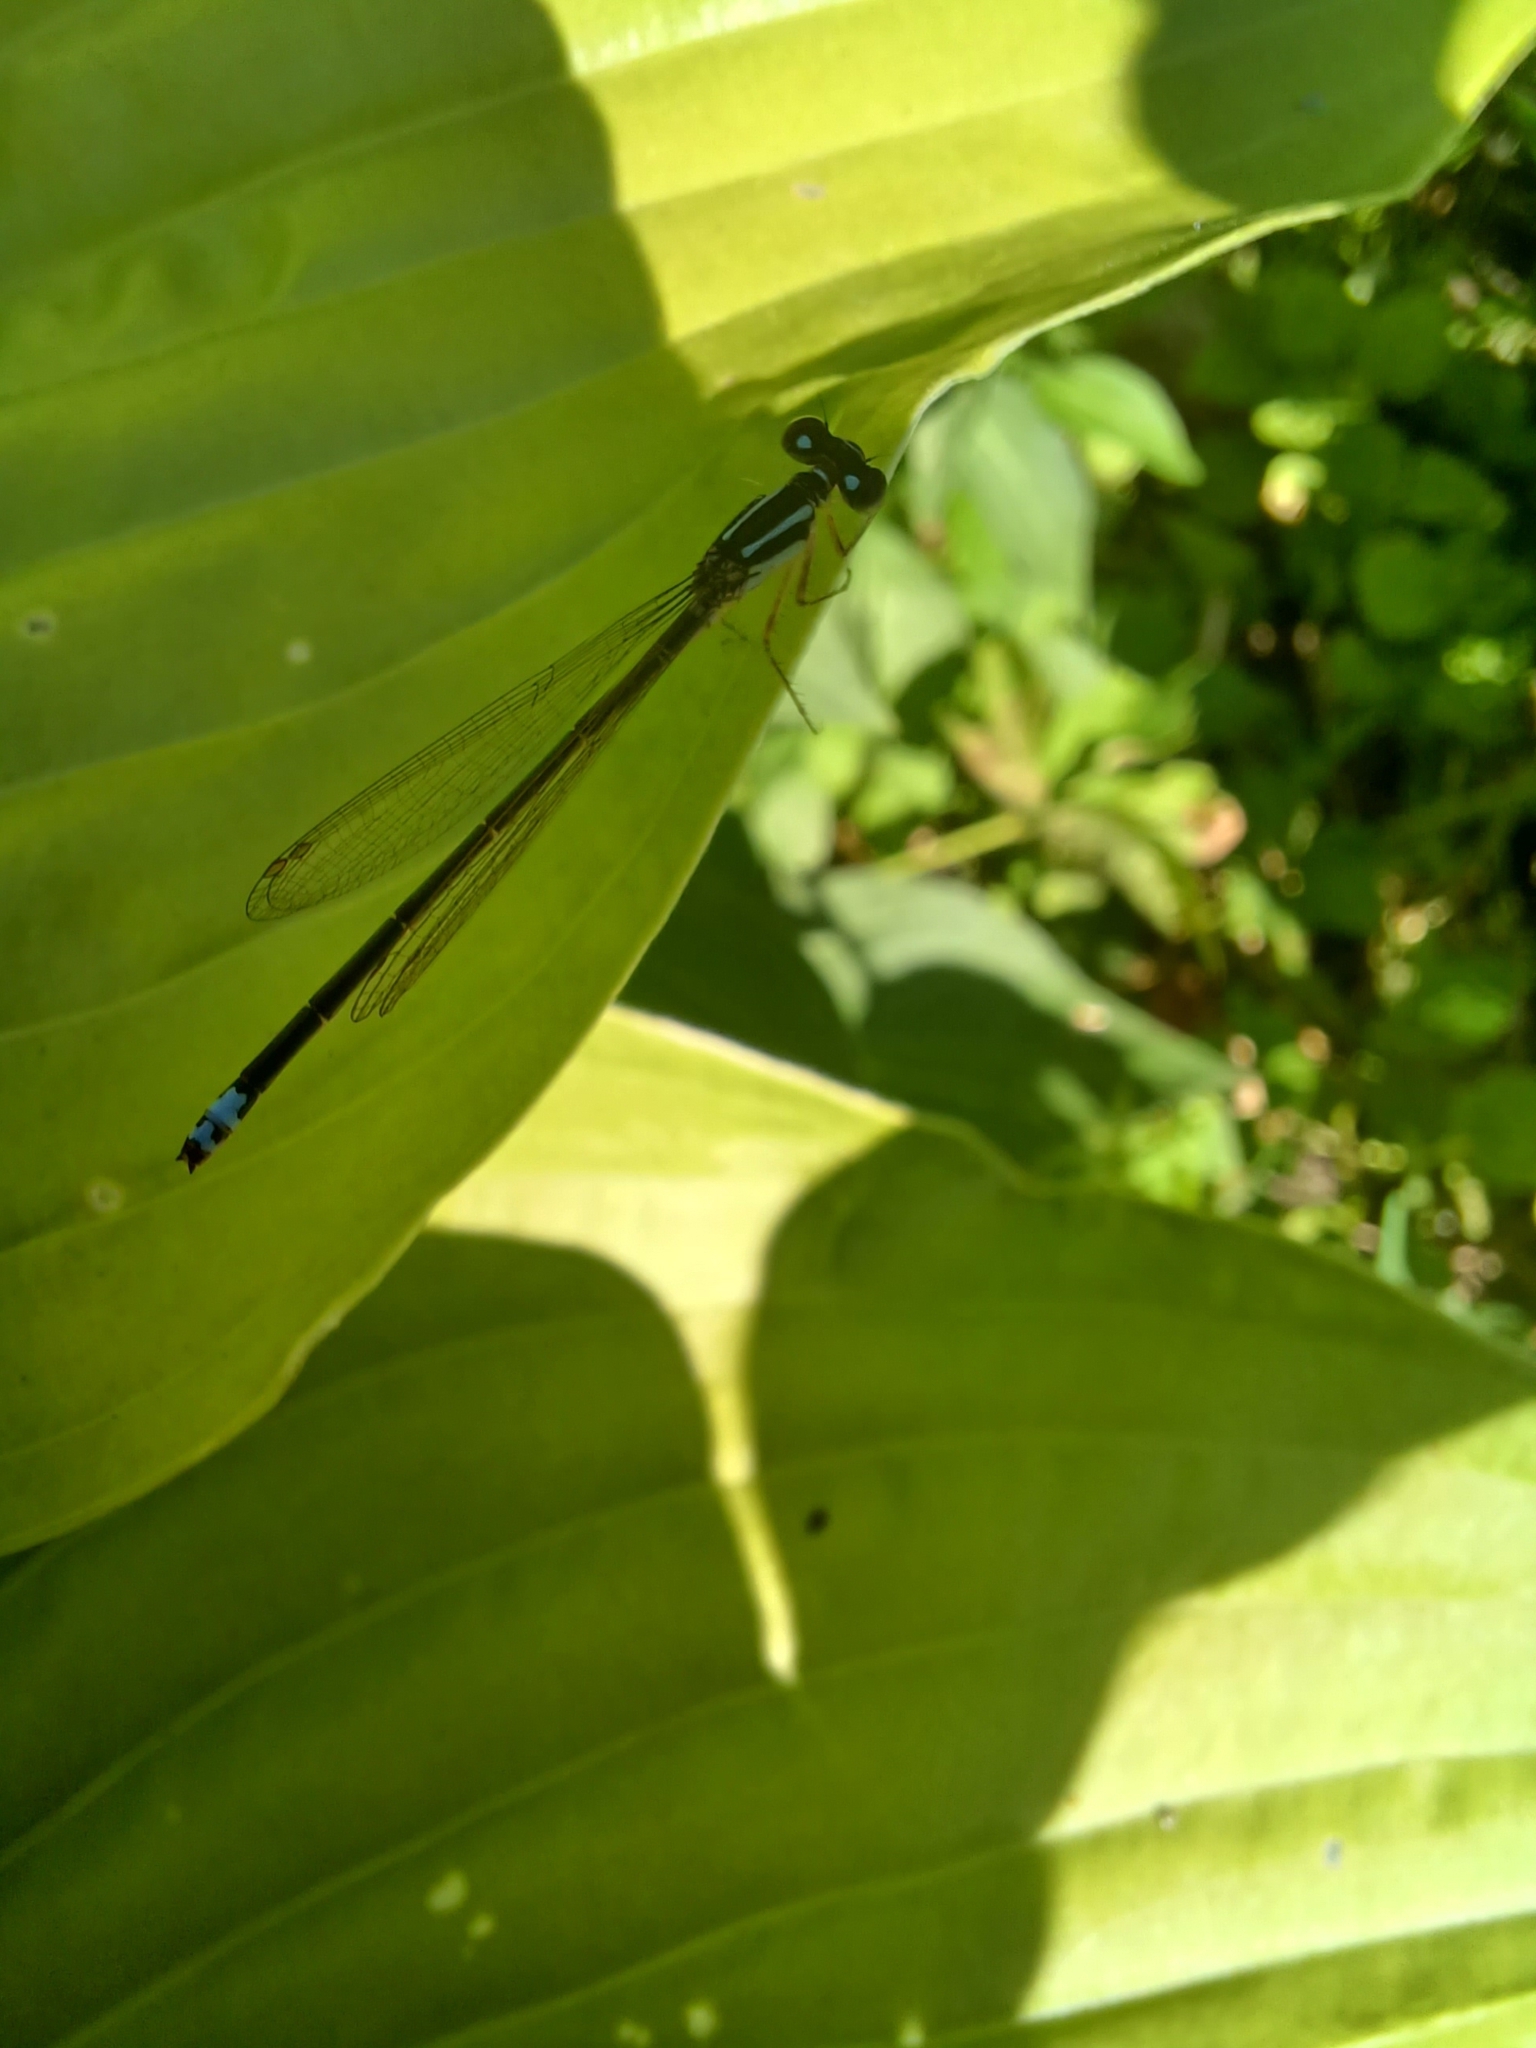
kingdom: Animalia
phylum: Arthropoda
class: Insecta
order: Odonata
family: Coenagrionidae
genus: Ischnura
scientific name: Ischnura verticalis
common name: Eastern forktail
